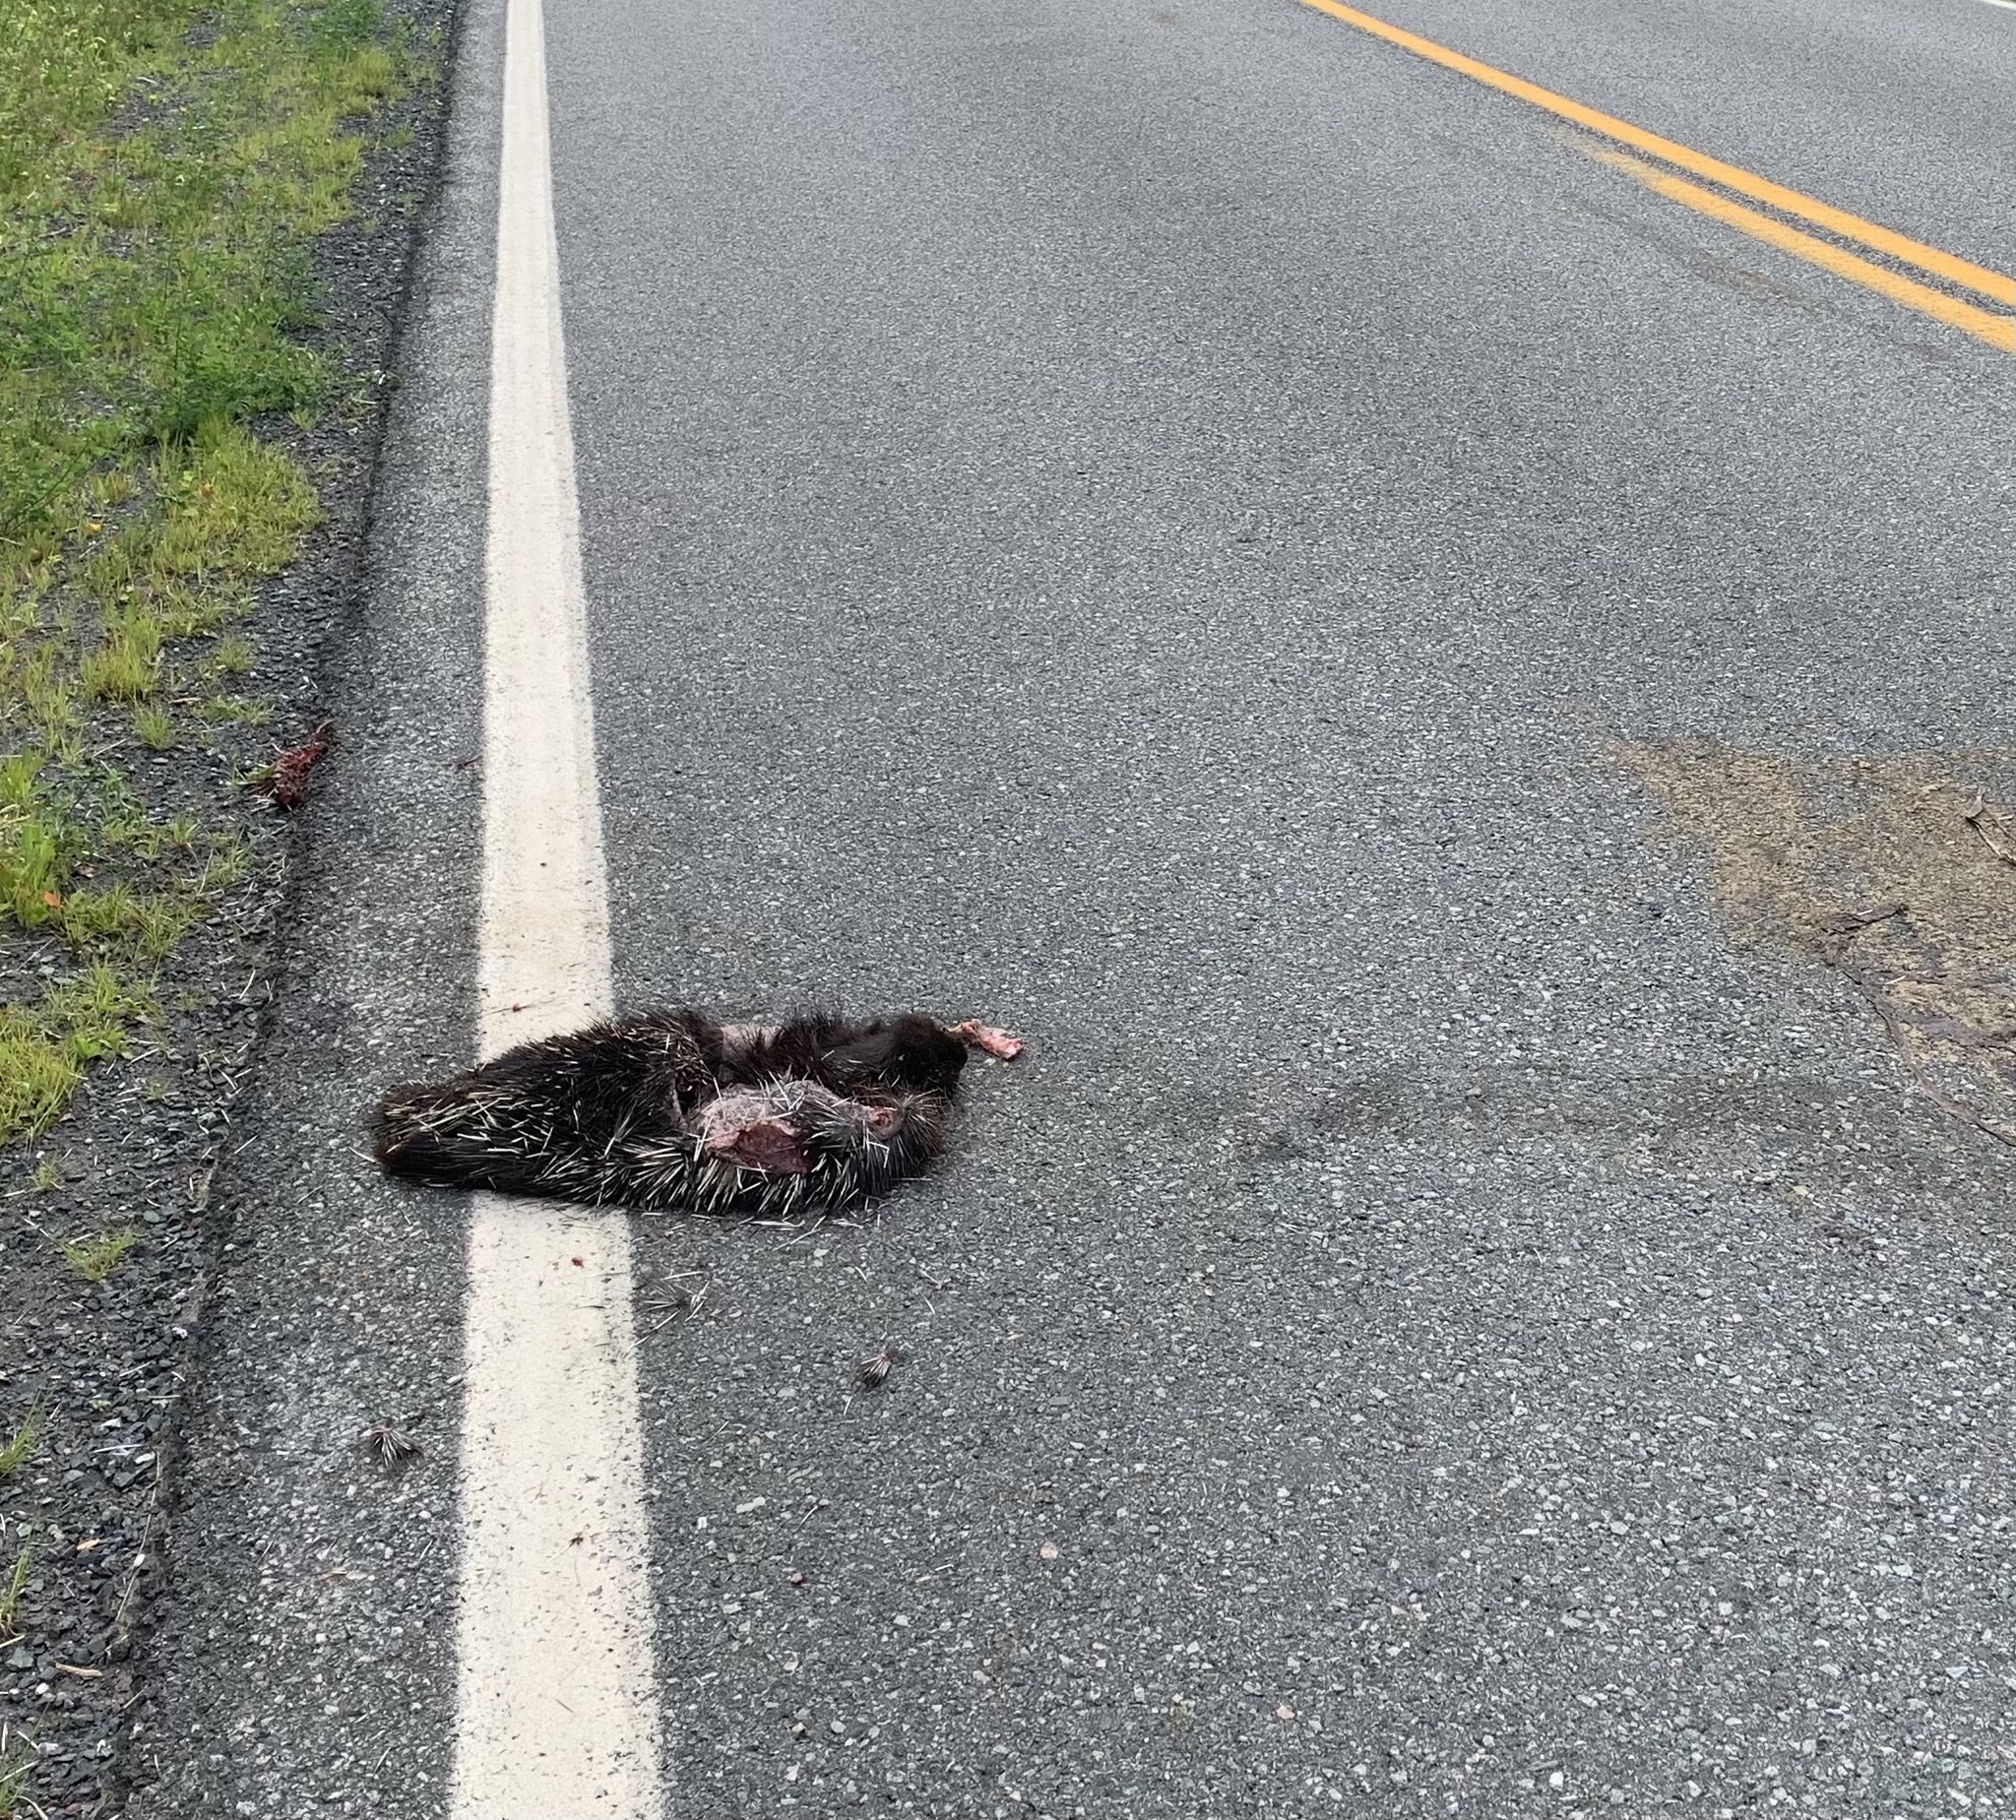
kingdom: Animalia
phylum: Chordata
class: Mammalia
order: Rodentia
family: Erethizontidae
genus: Erethizon
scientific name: Erethizon dorsatus
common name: North american porcupine
